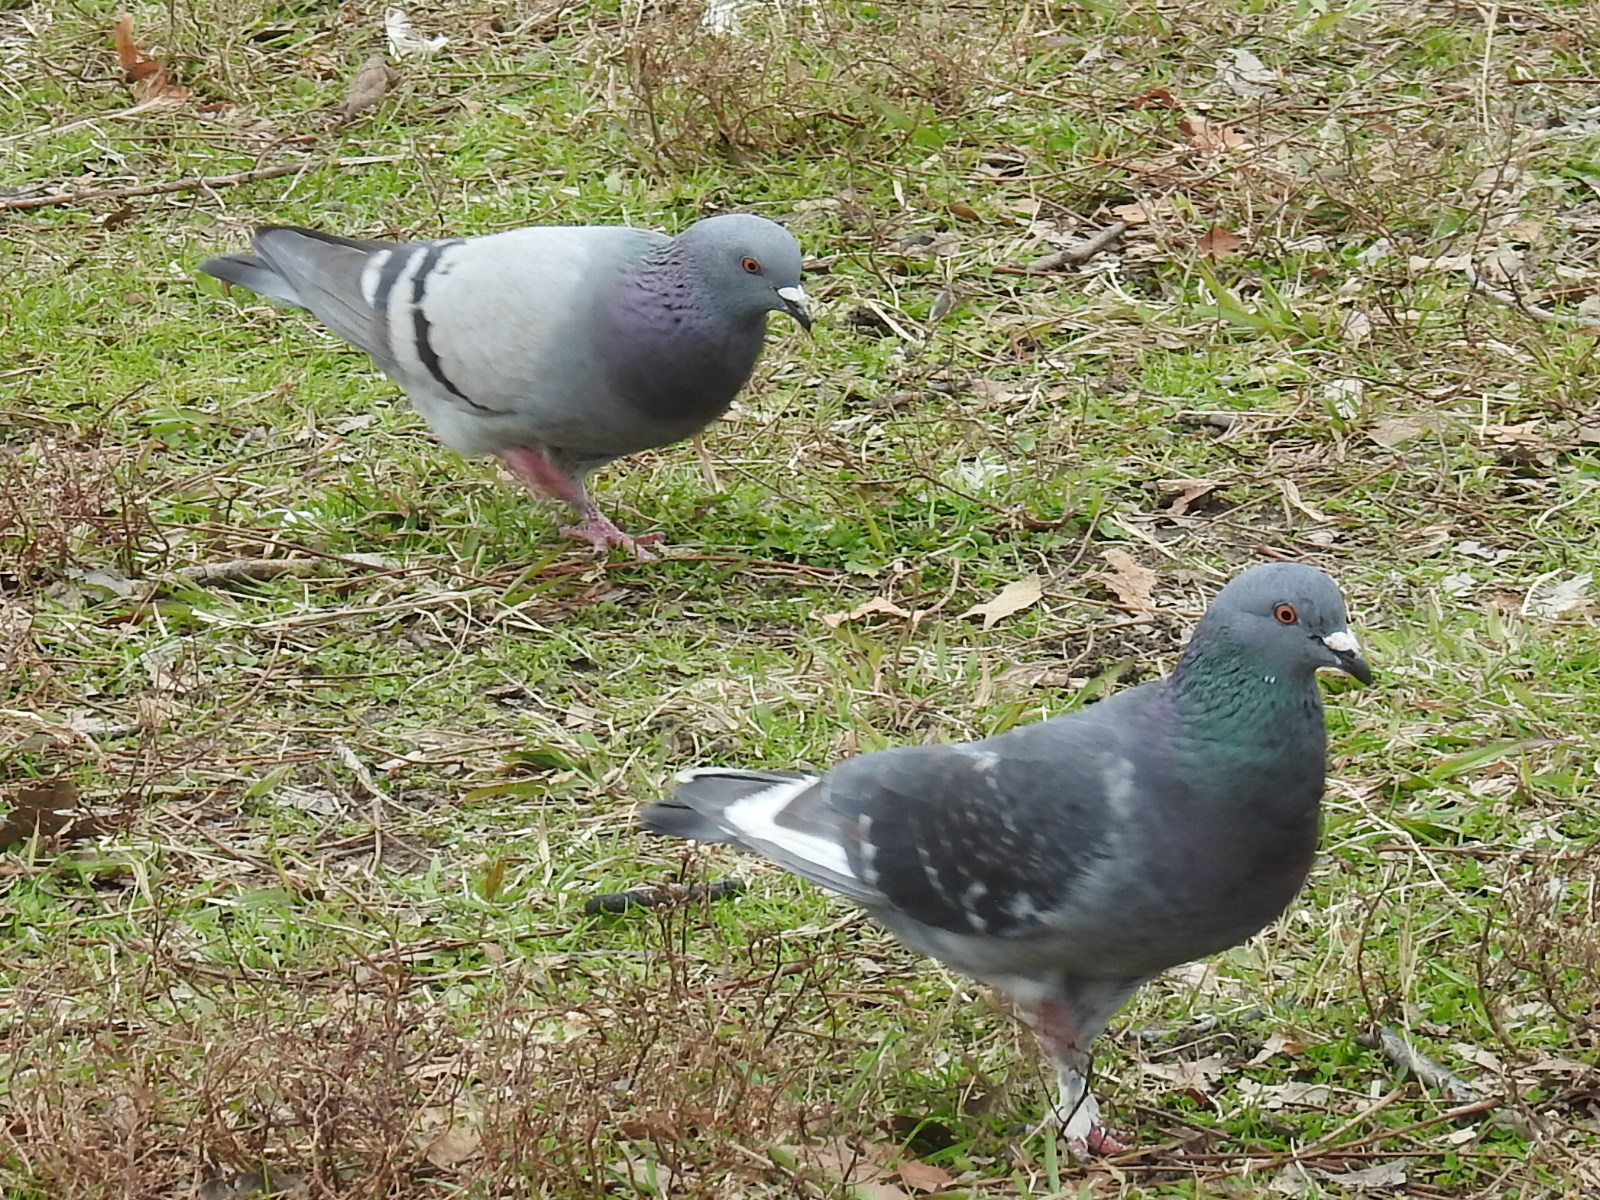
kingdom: Animalia
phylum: Chordata
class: Aves
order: Columbiformes
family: Columbidae
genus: Columba
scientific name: Columba livia
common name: Rock pigeon
